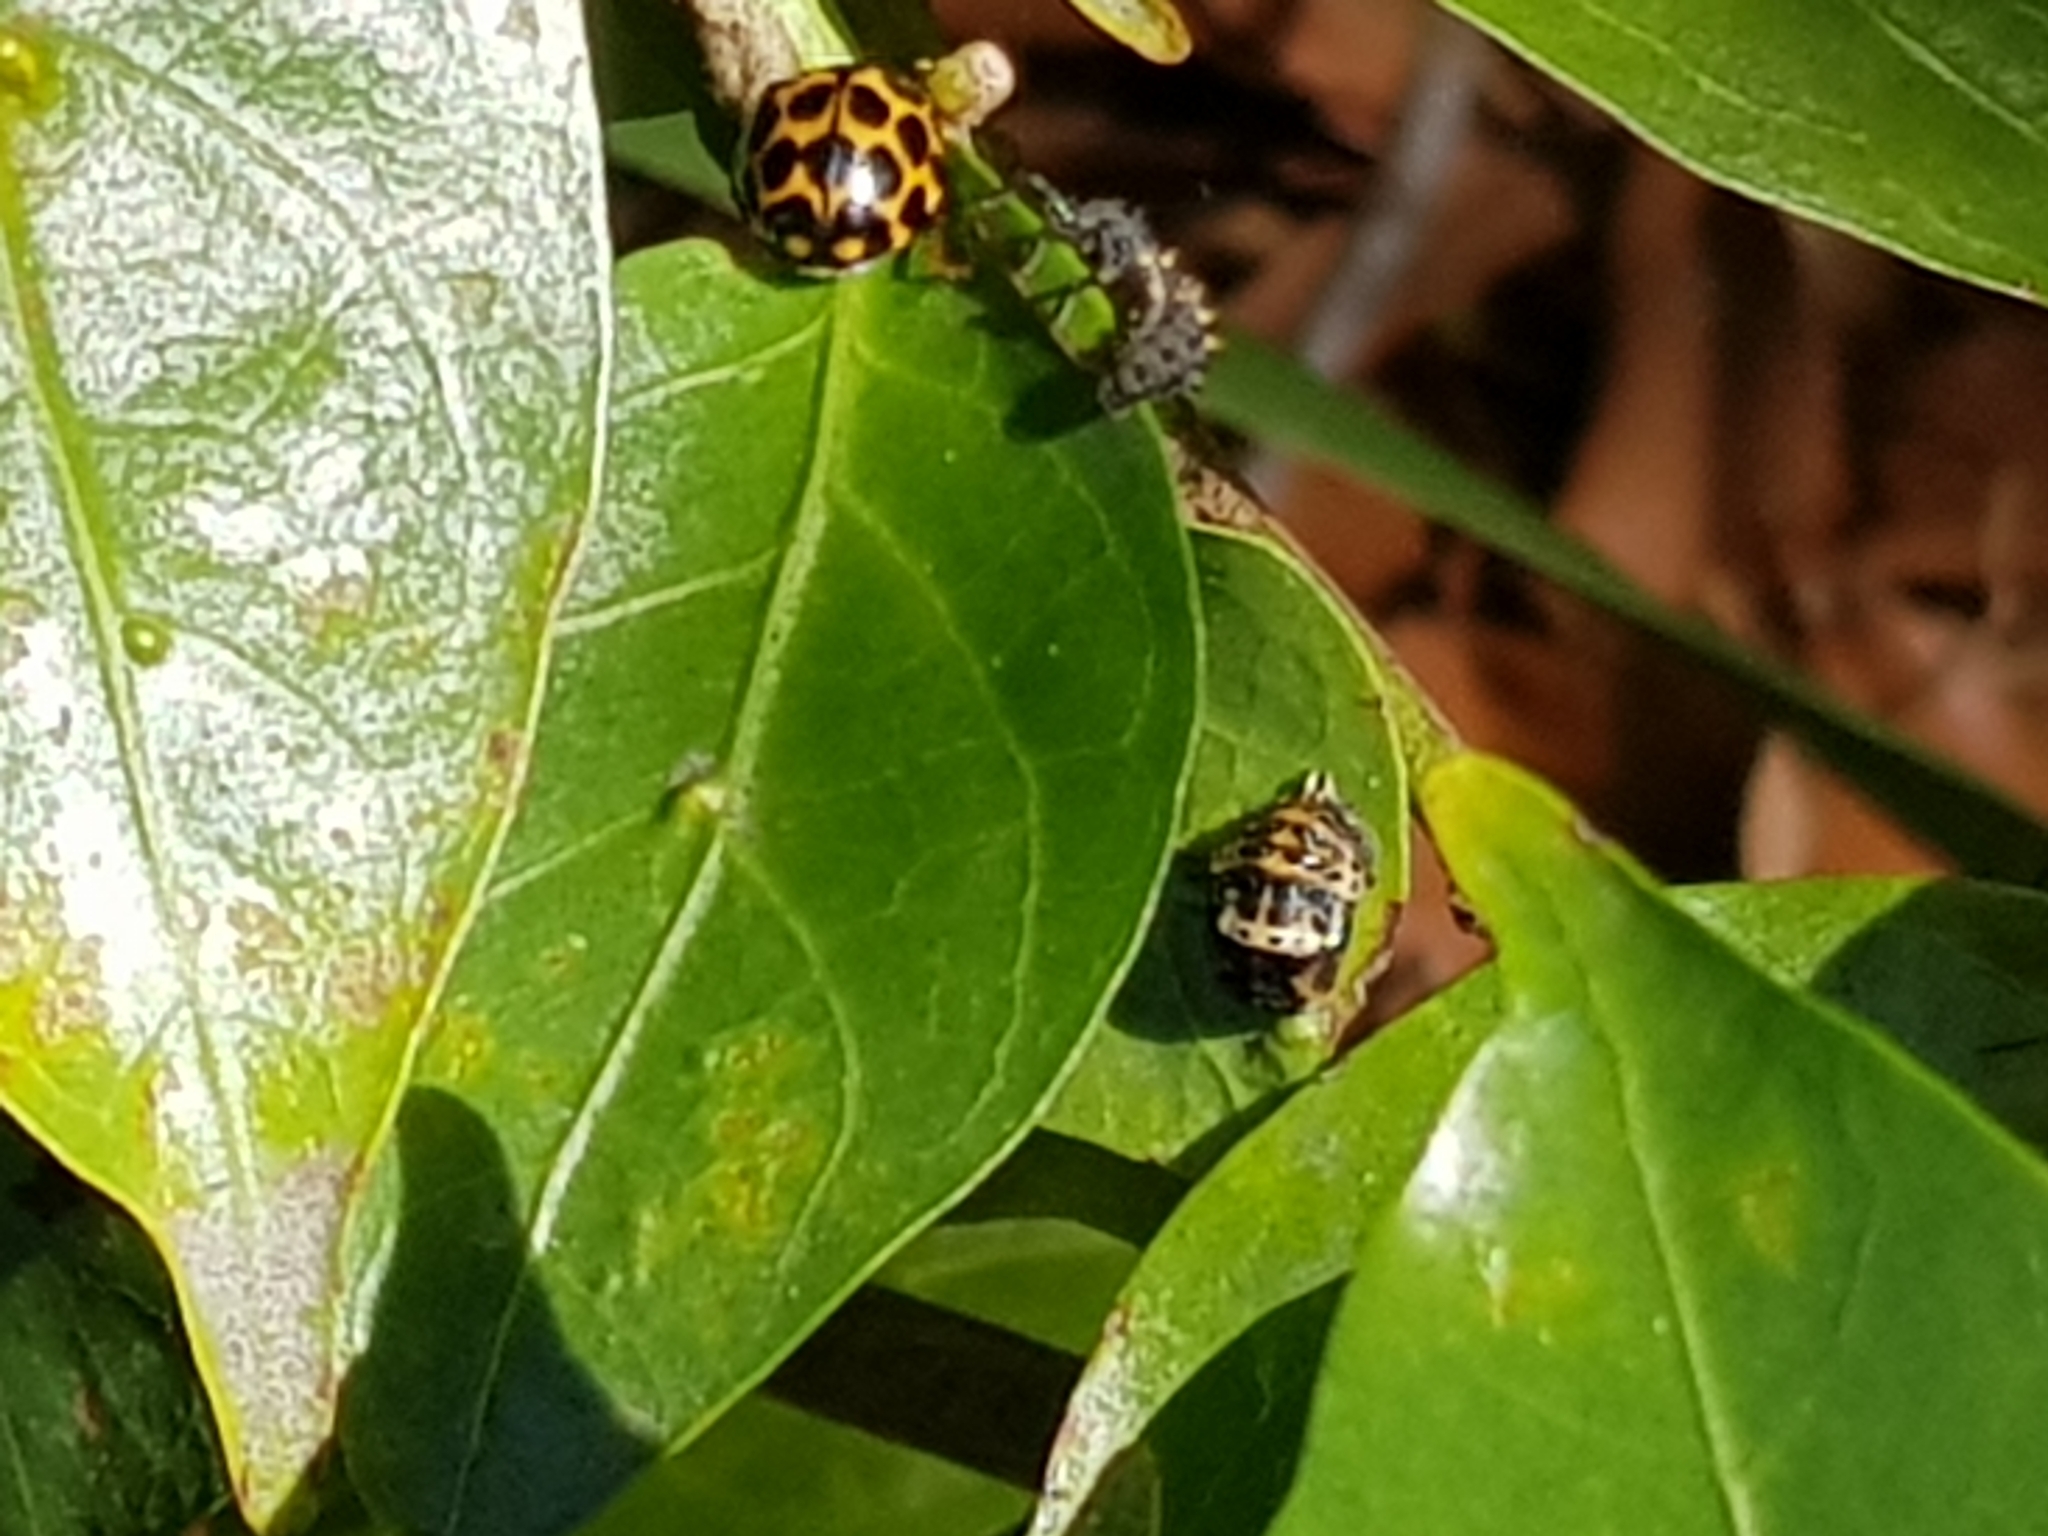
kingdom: Animalia
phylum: Arthropoda
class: Insecta
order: Coleoptera
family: Coccinellidae
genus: Harmonia
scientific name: Harmonia conformis
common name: Common spotted ladybird beetle
